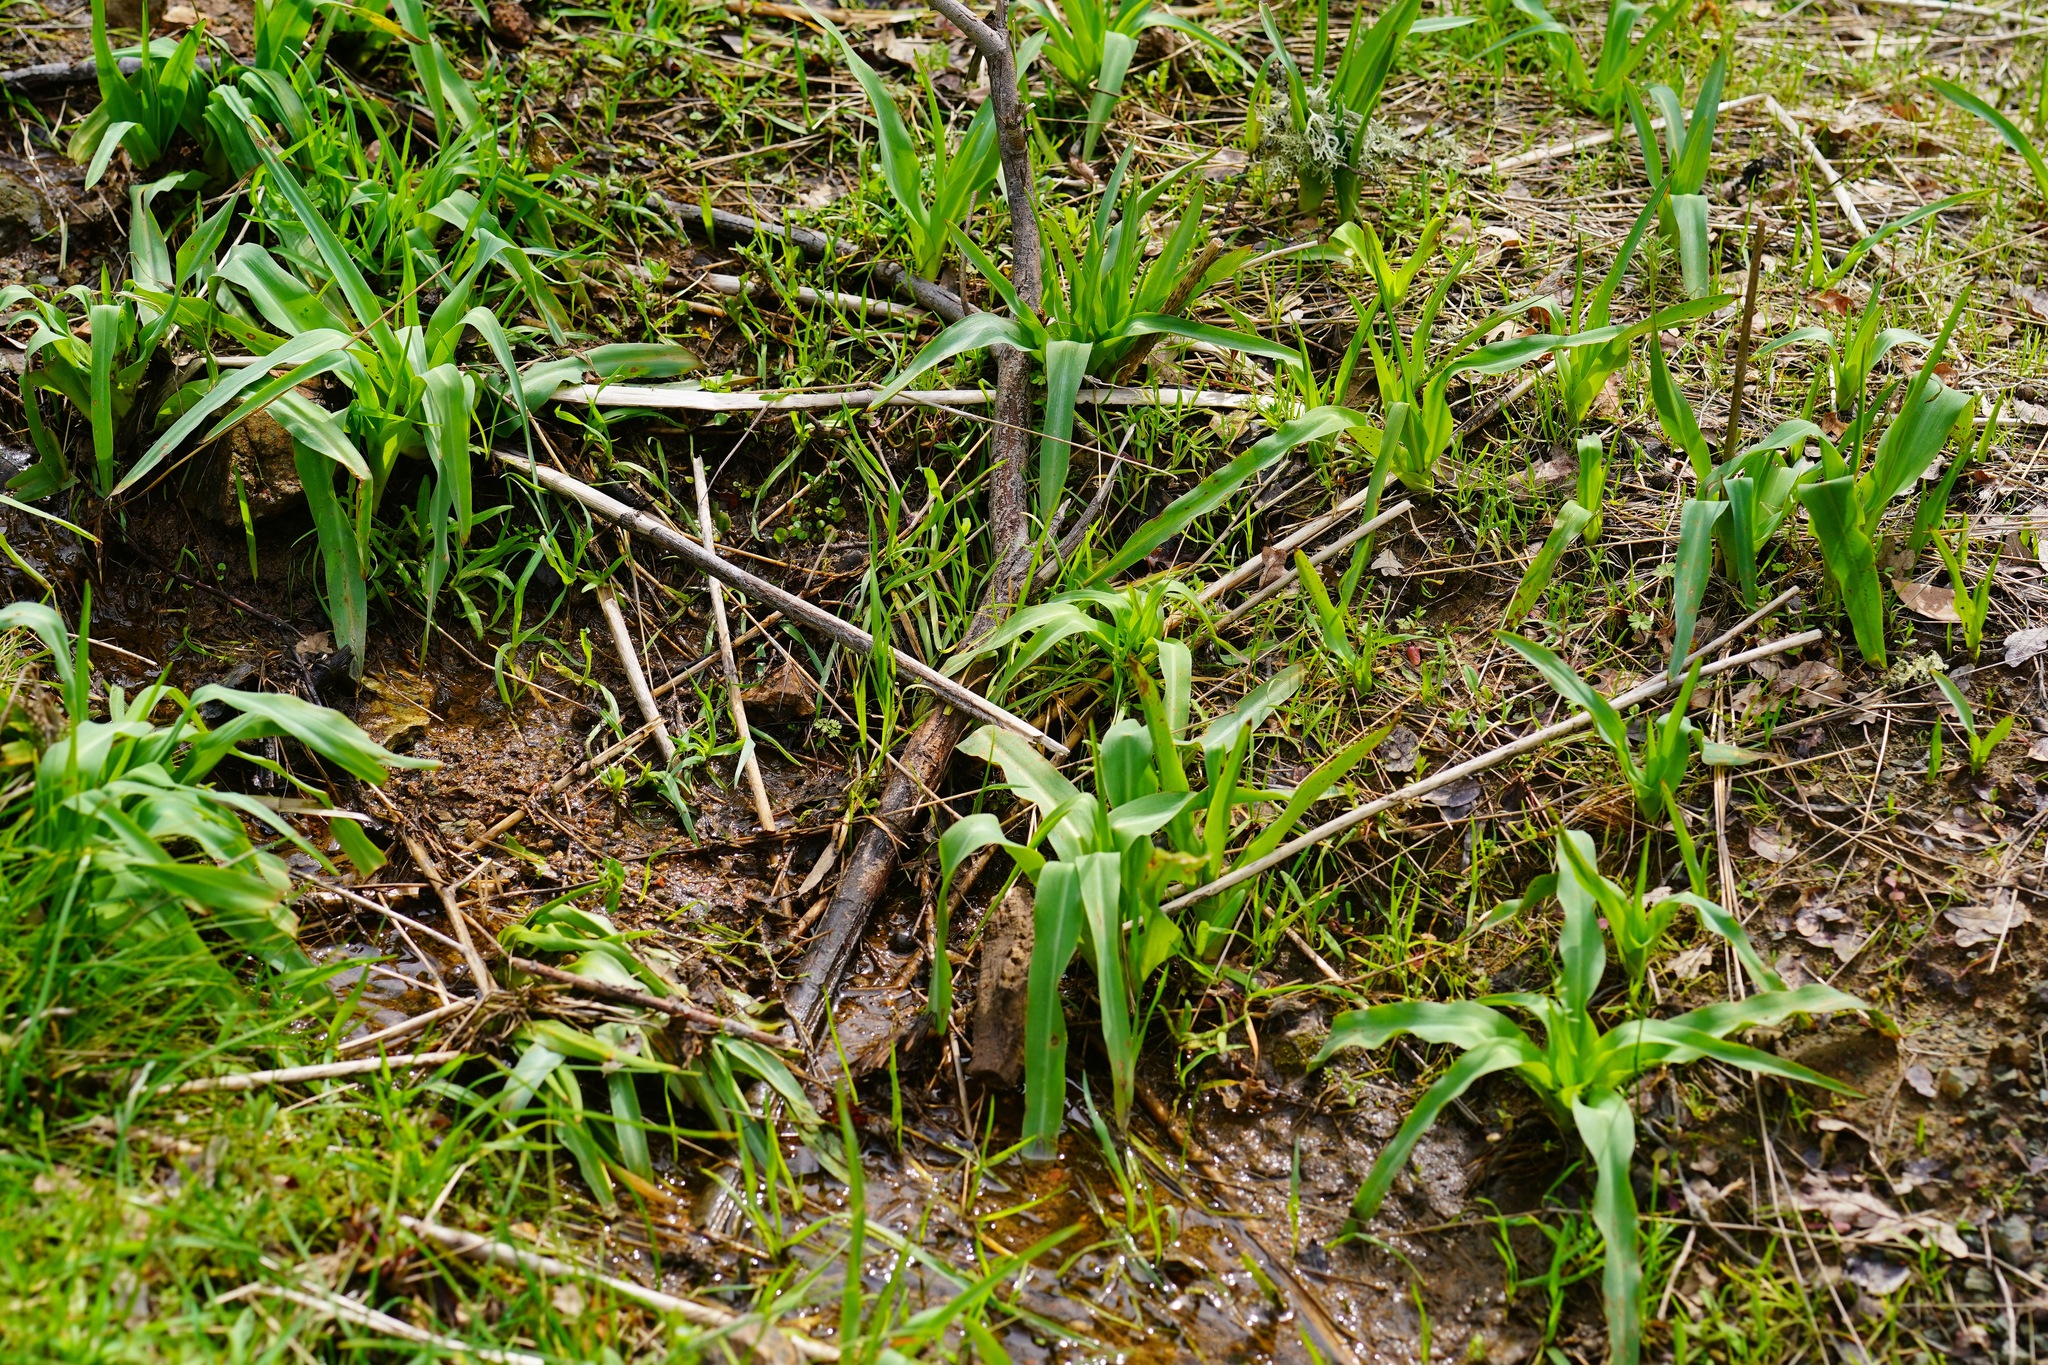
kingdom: Plantae
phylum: Tracheophyta
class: Liliopsida
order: Asparagales
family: Asparagaceae
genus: Chlorogalum
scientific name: Chlorogalum pomeridianum
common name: Amole
